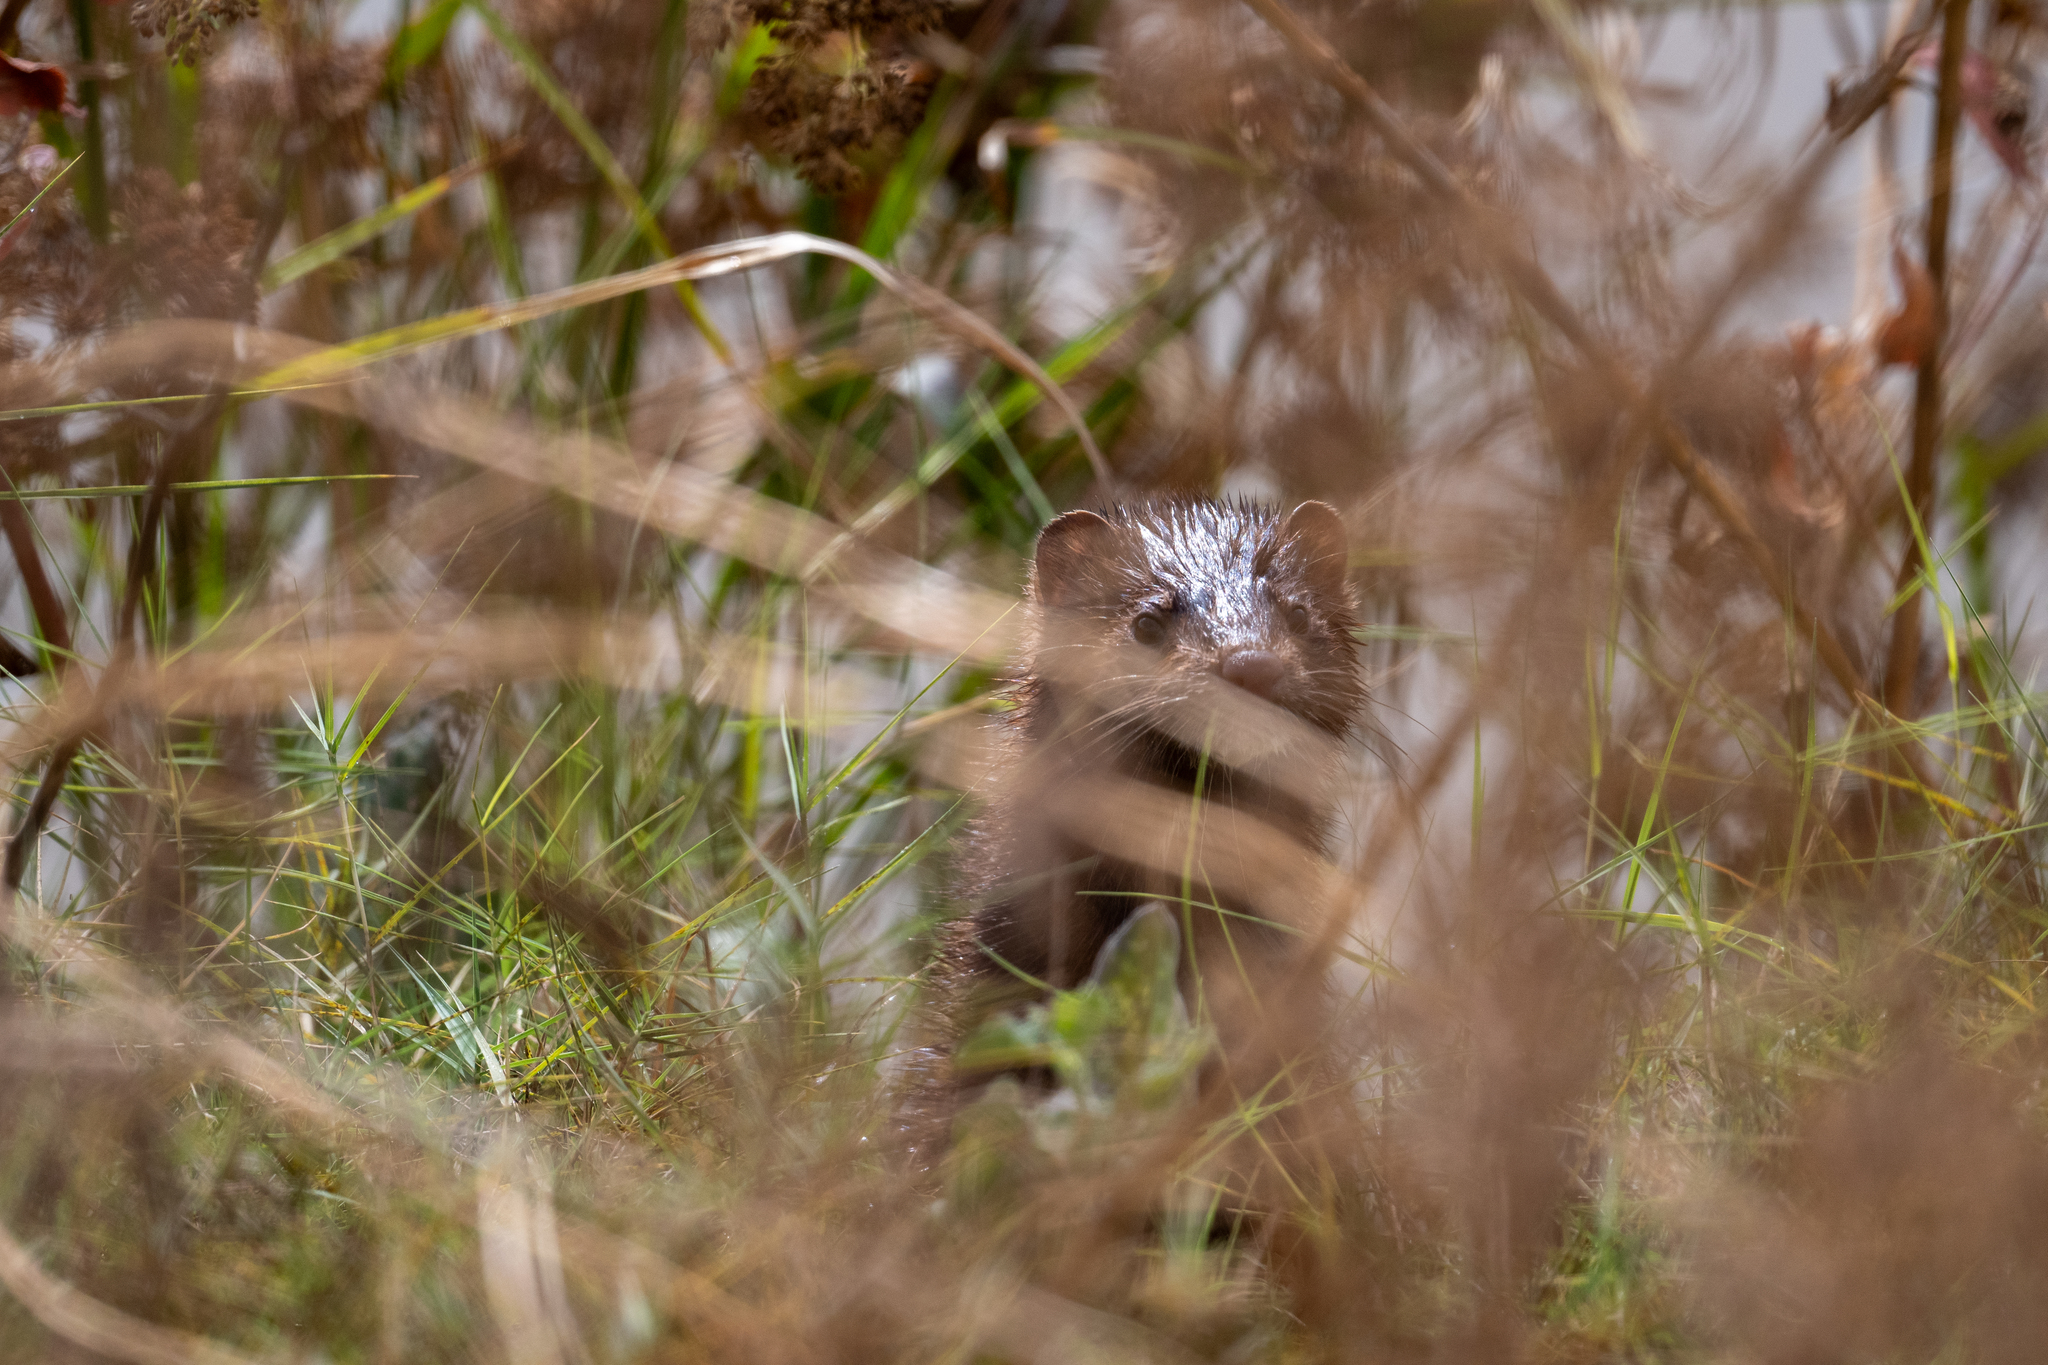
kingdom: Animalia
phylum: Chordata
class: Mammalia
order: Carnivora
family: Mustelidae
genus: Mustela
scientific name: Mustela
